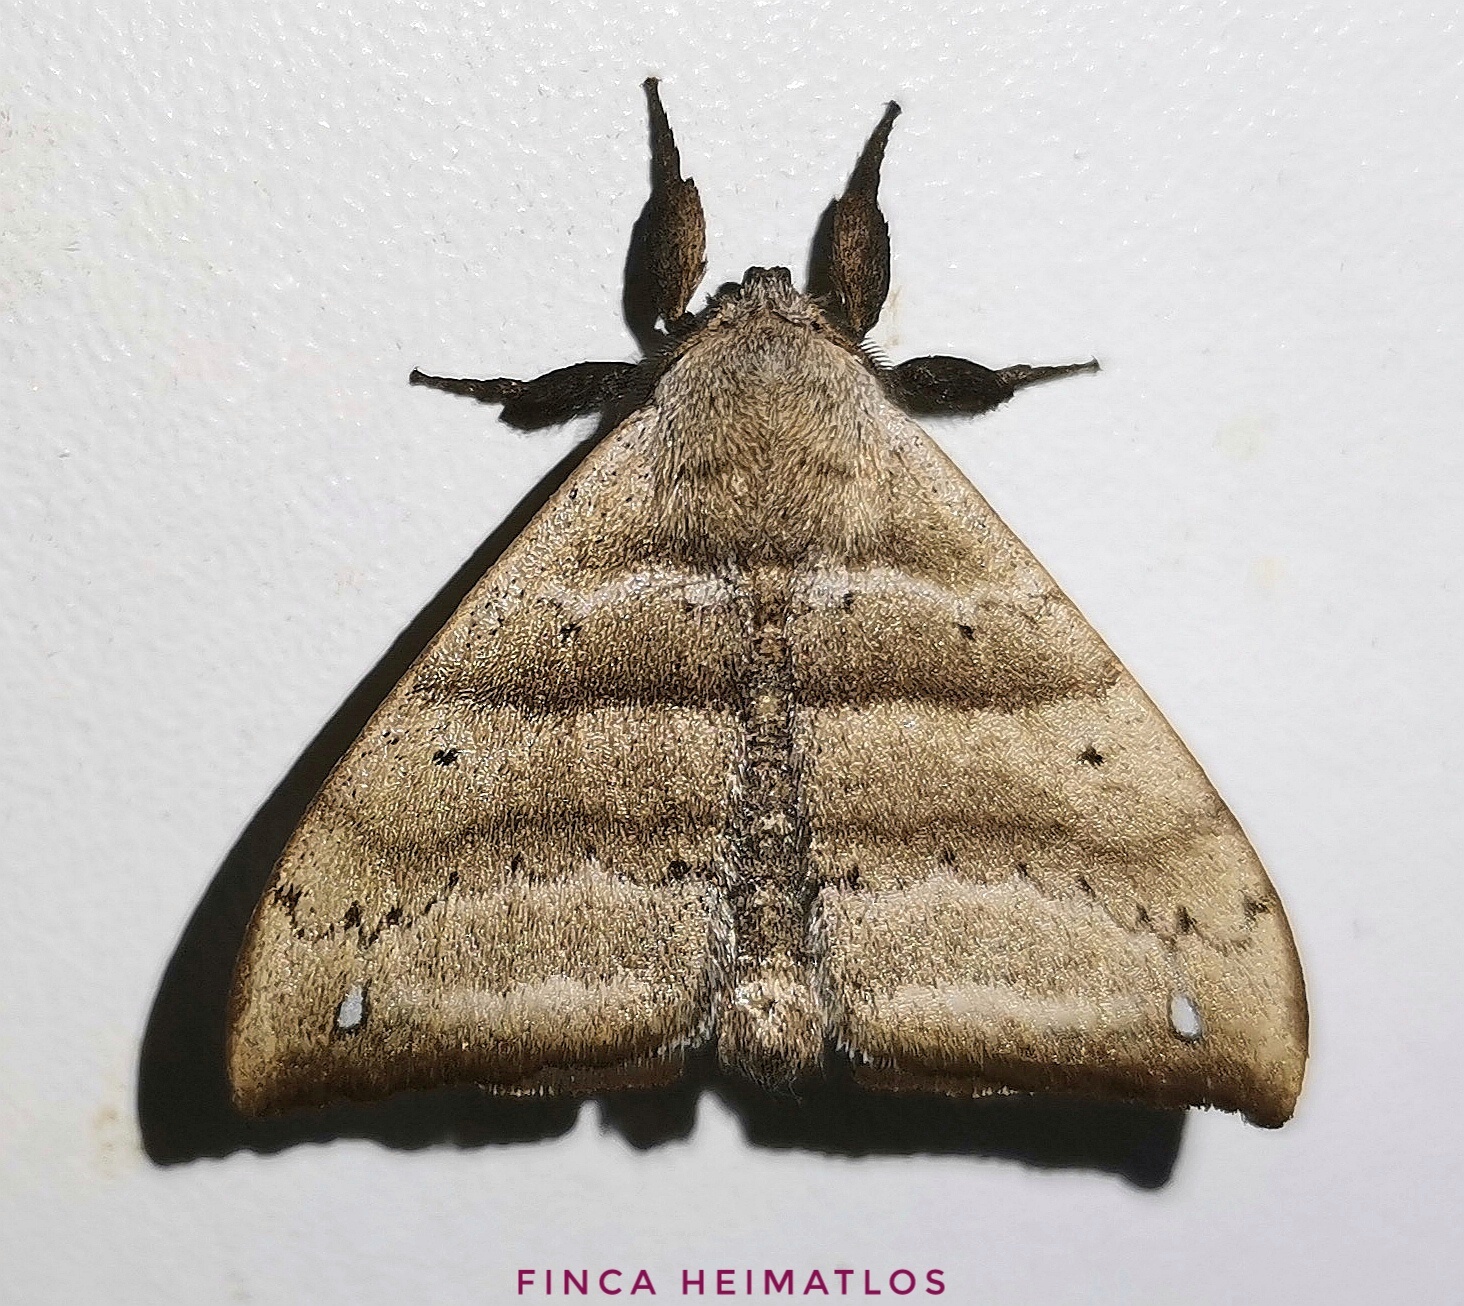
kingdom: Animalia
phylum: Arthropoda
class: Insecta
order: Lepidoptera
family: Apatelodidae
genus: Falcatelodes
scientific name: Falcatelodes anava
